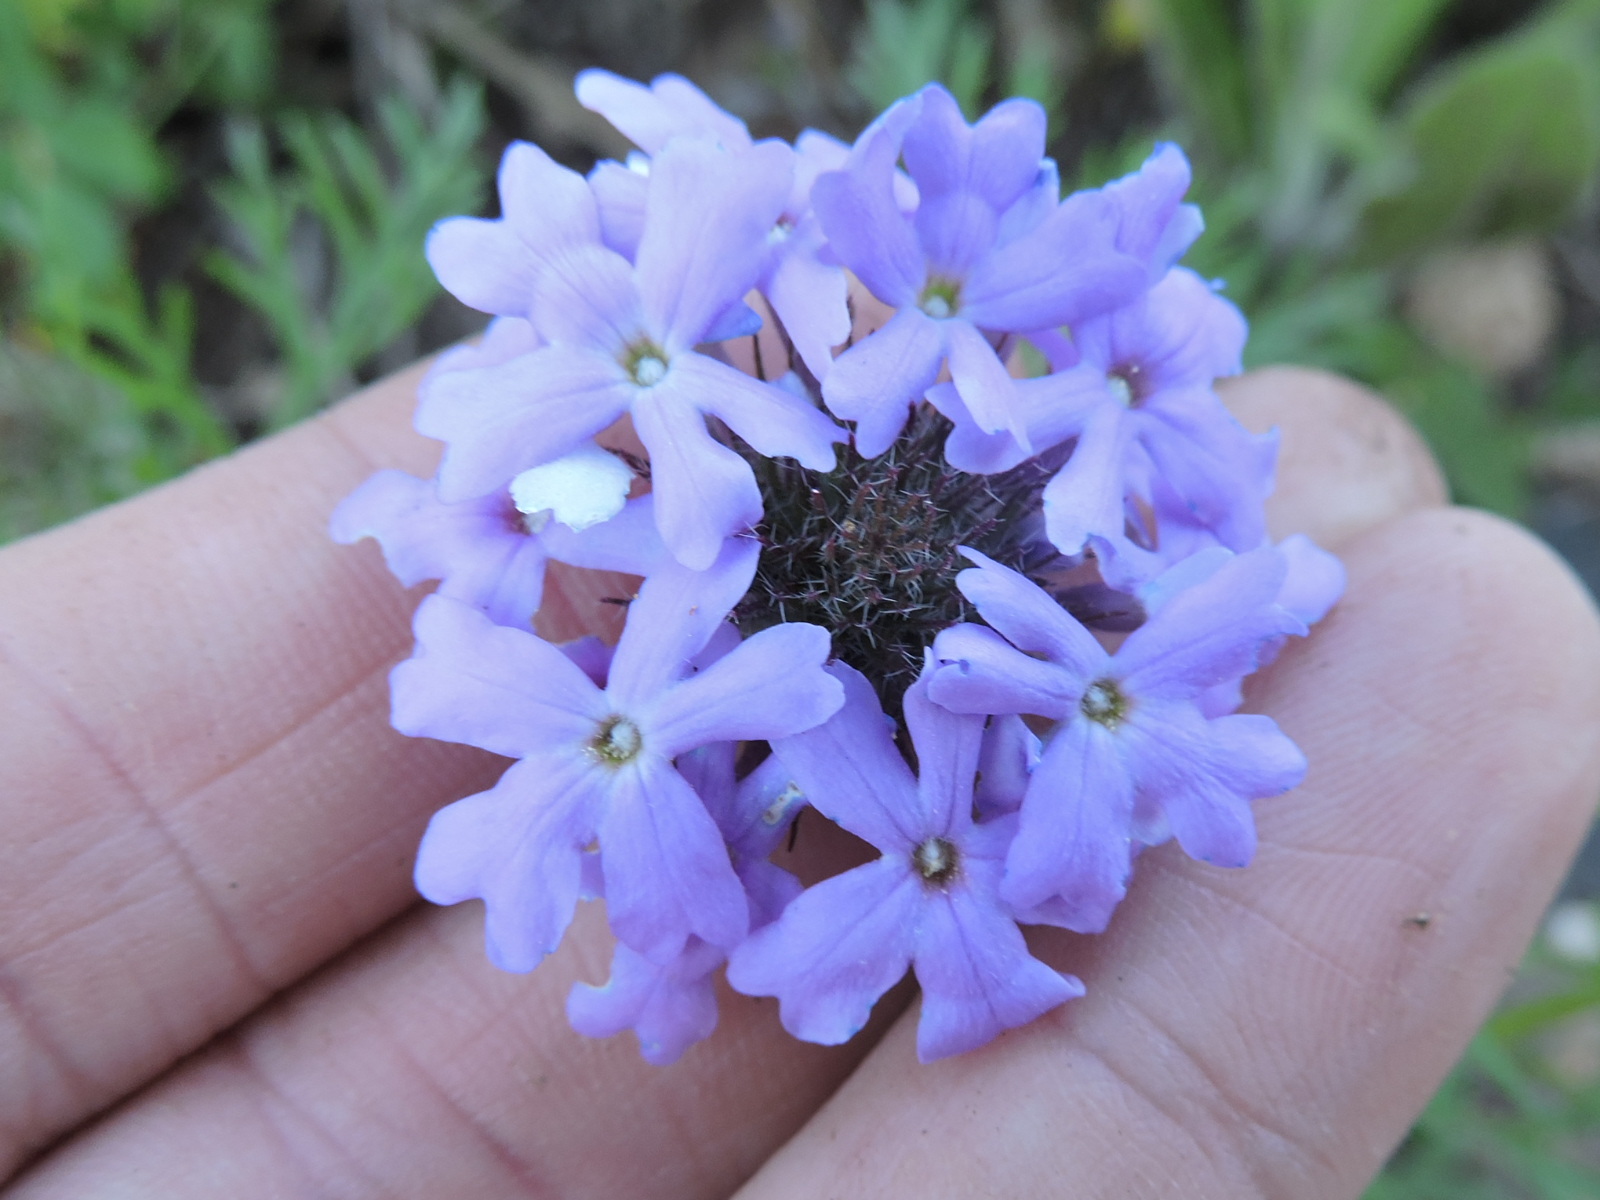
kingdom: Plantae
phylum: Tracheophyta
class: Magnoliopsida
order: Lamiales
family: Verbenaceae
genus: Verbena
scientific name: Verbena bipinnatifida
